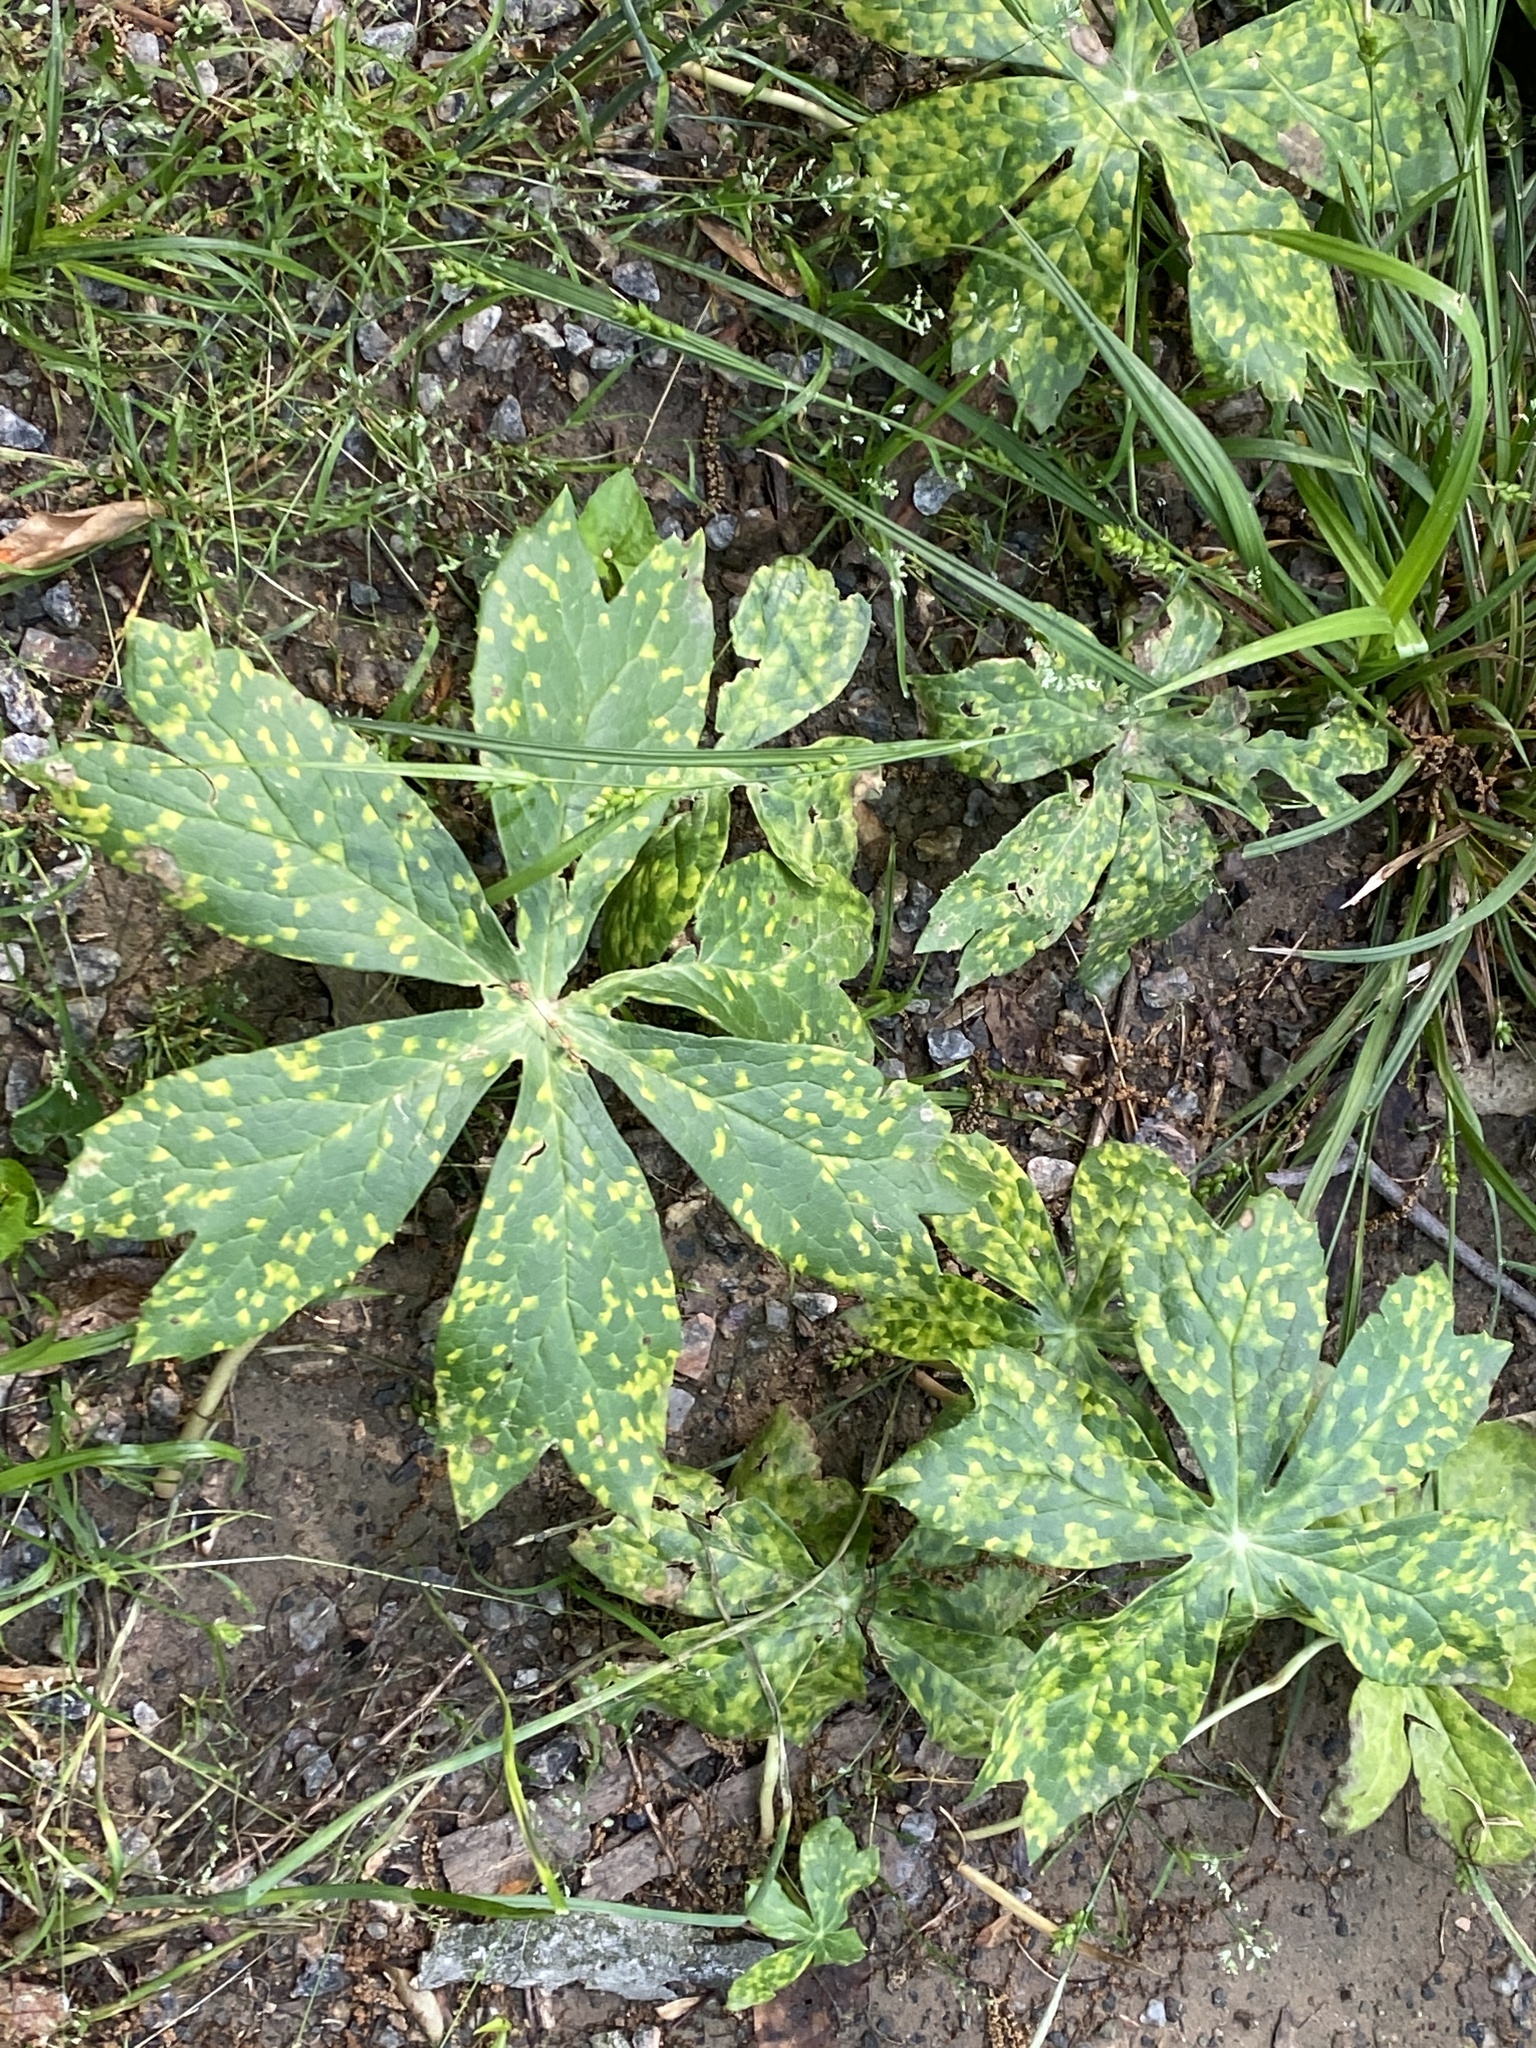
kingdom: Fungi
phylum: Basidiomycota
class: Pucciniomycetes
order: Pucciniales
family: Pucciniaceae
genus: Puccinia
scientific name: Puccinia podophylli
